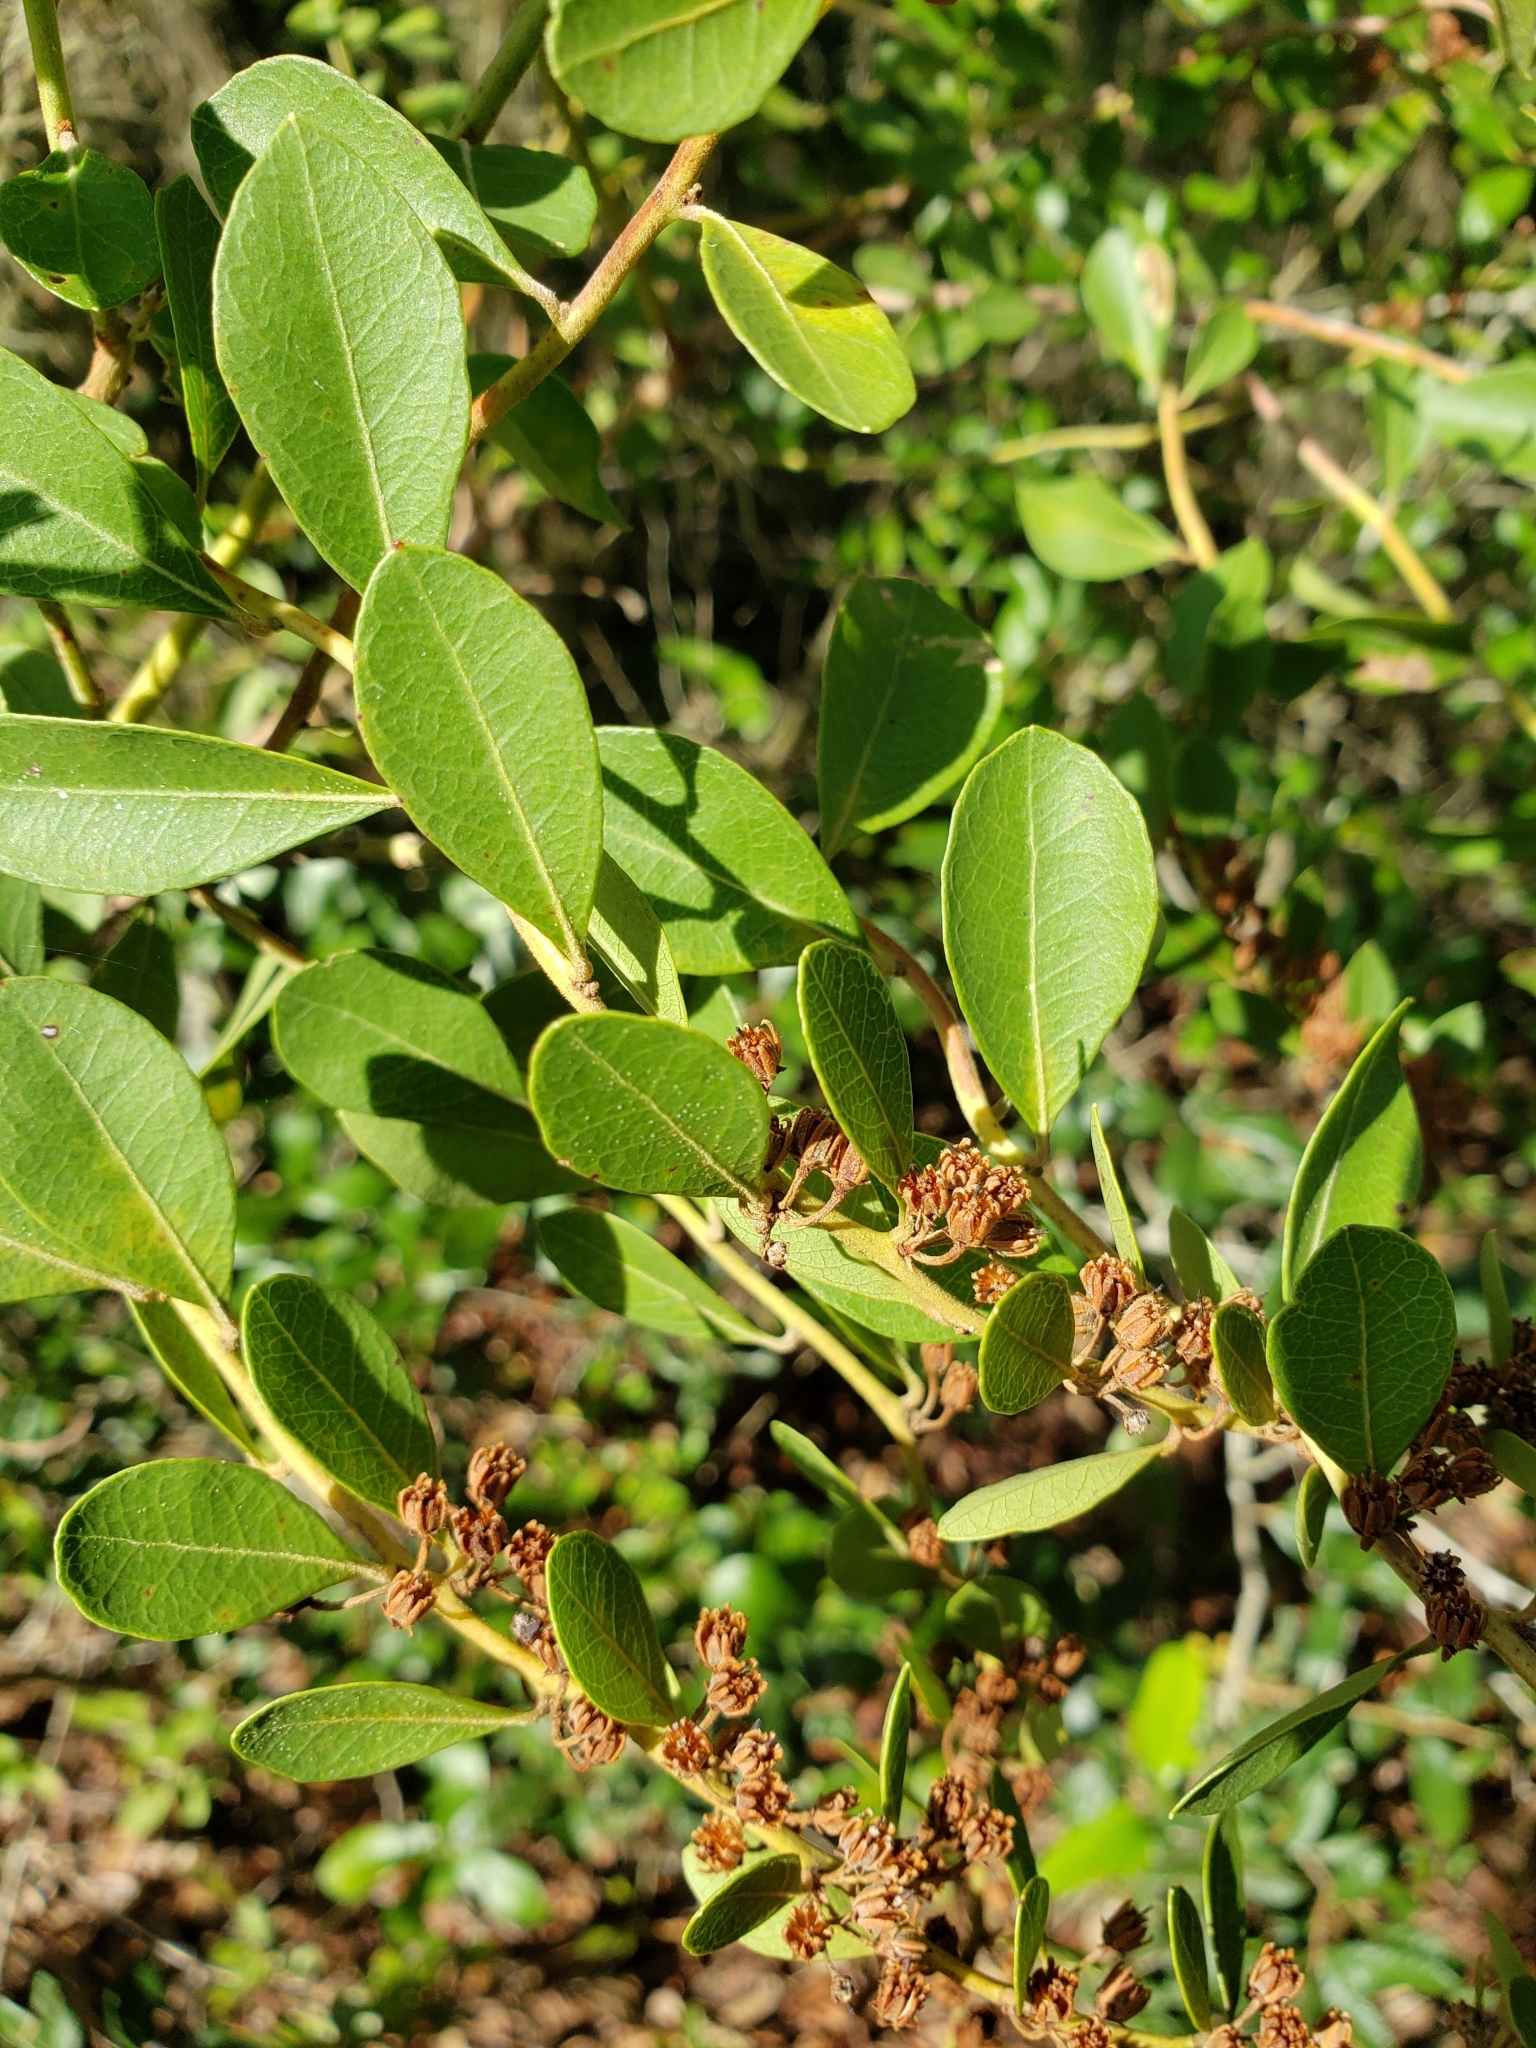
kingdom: Plantae
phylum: Tracheophyta
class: Magnoliopsida
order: Ericales
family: Ericaceae
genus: Lyonia
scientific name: Lyonia fruticosa
